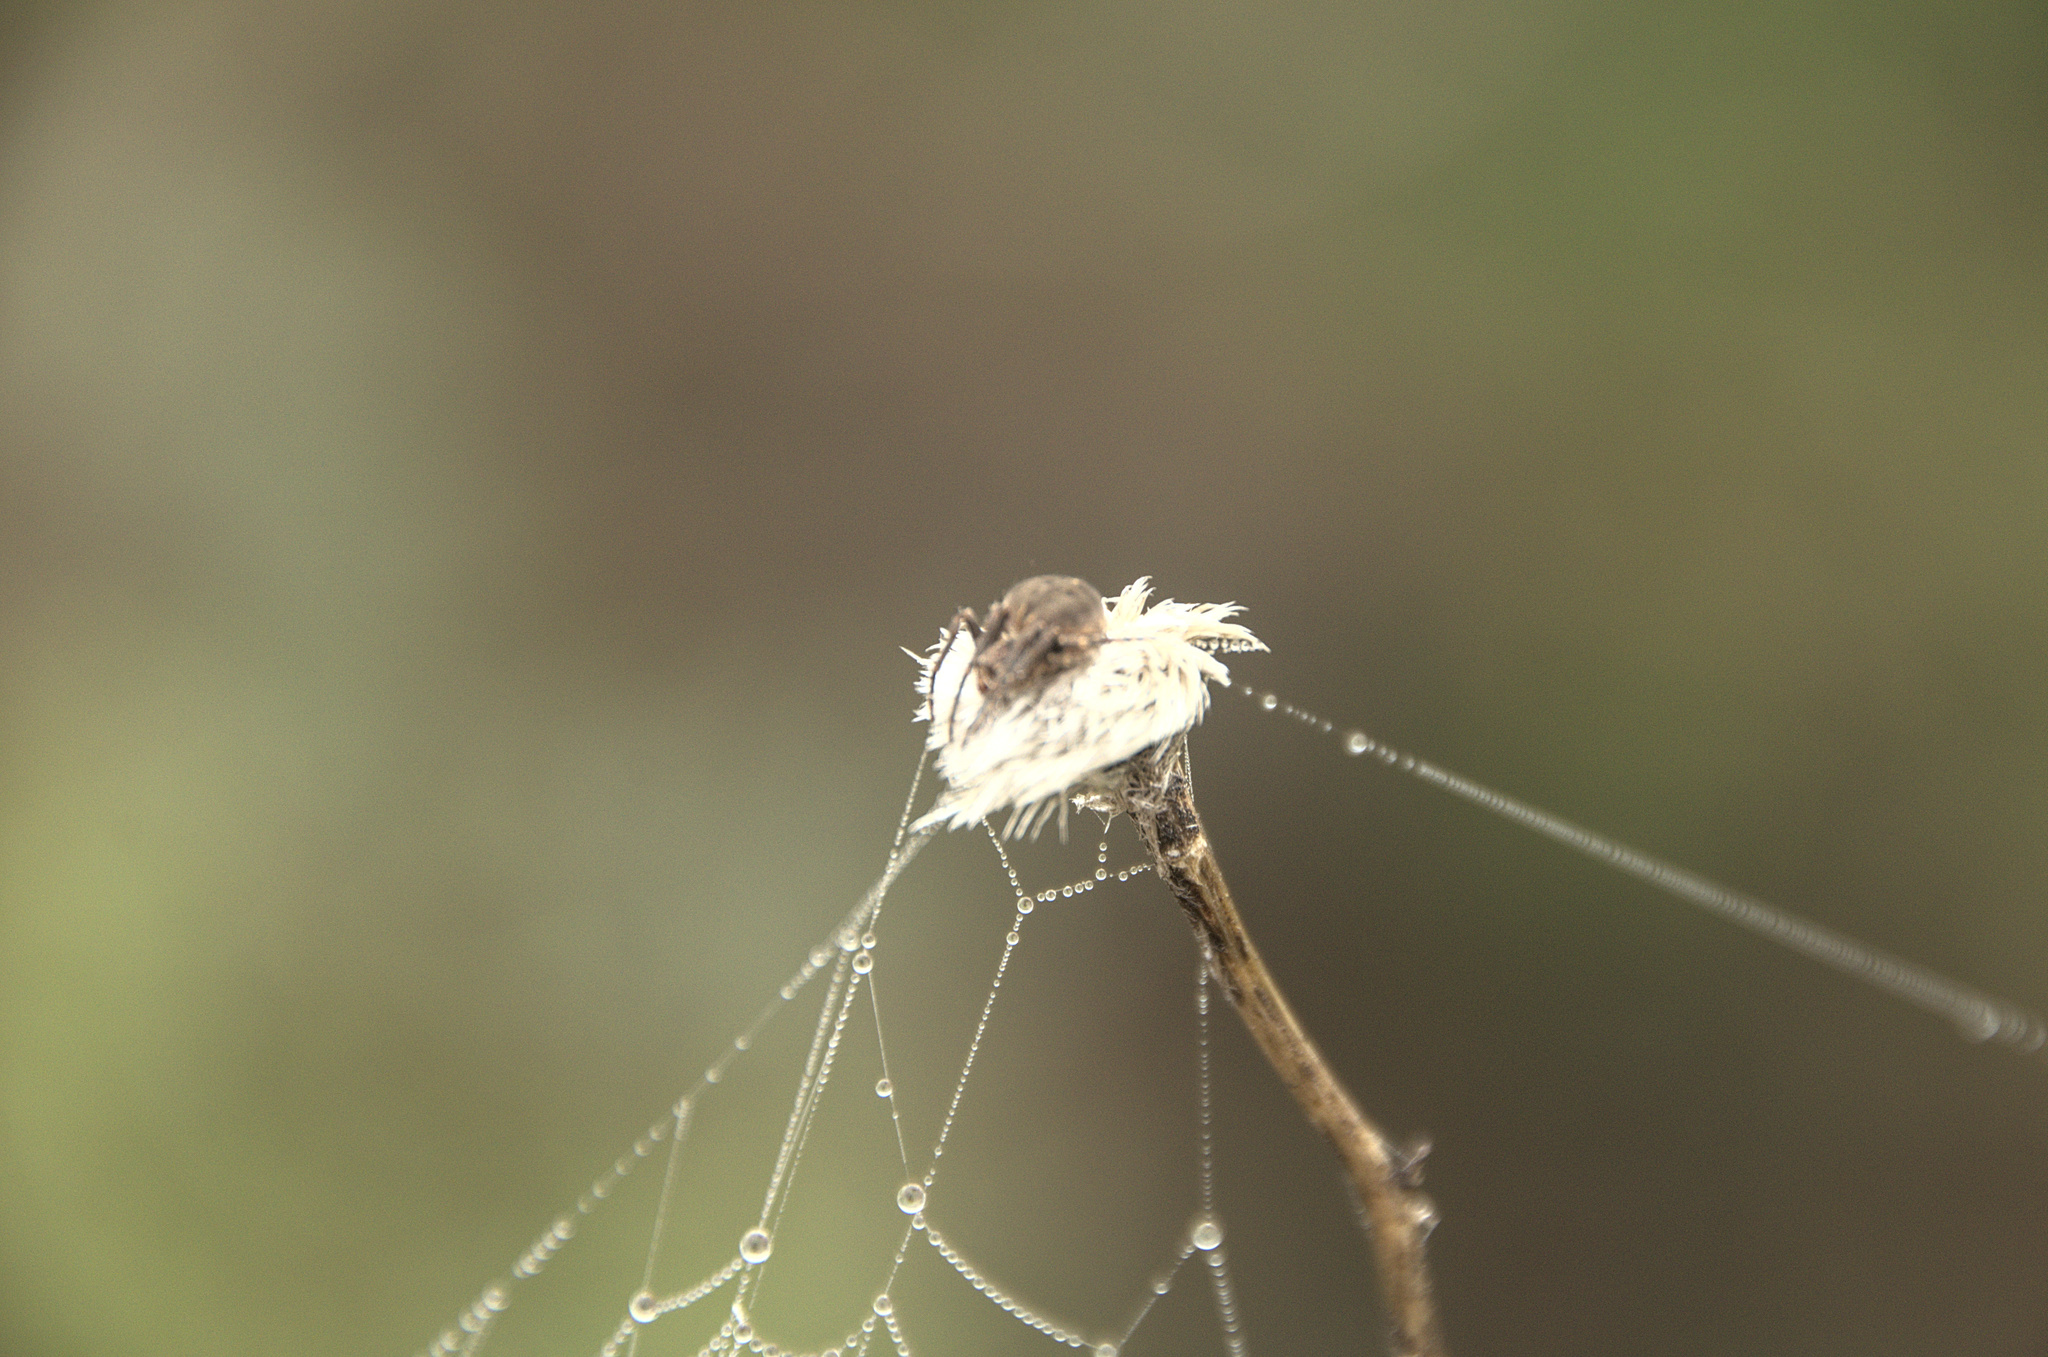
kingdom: Animalia
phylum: Arthropoda
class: Arachnida
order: Araneae
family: Araneidae
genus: Agalenatea
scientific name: Agalenatea redii
